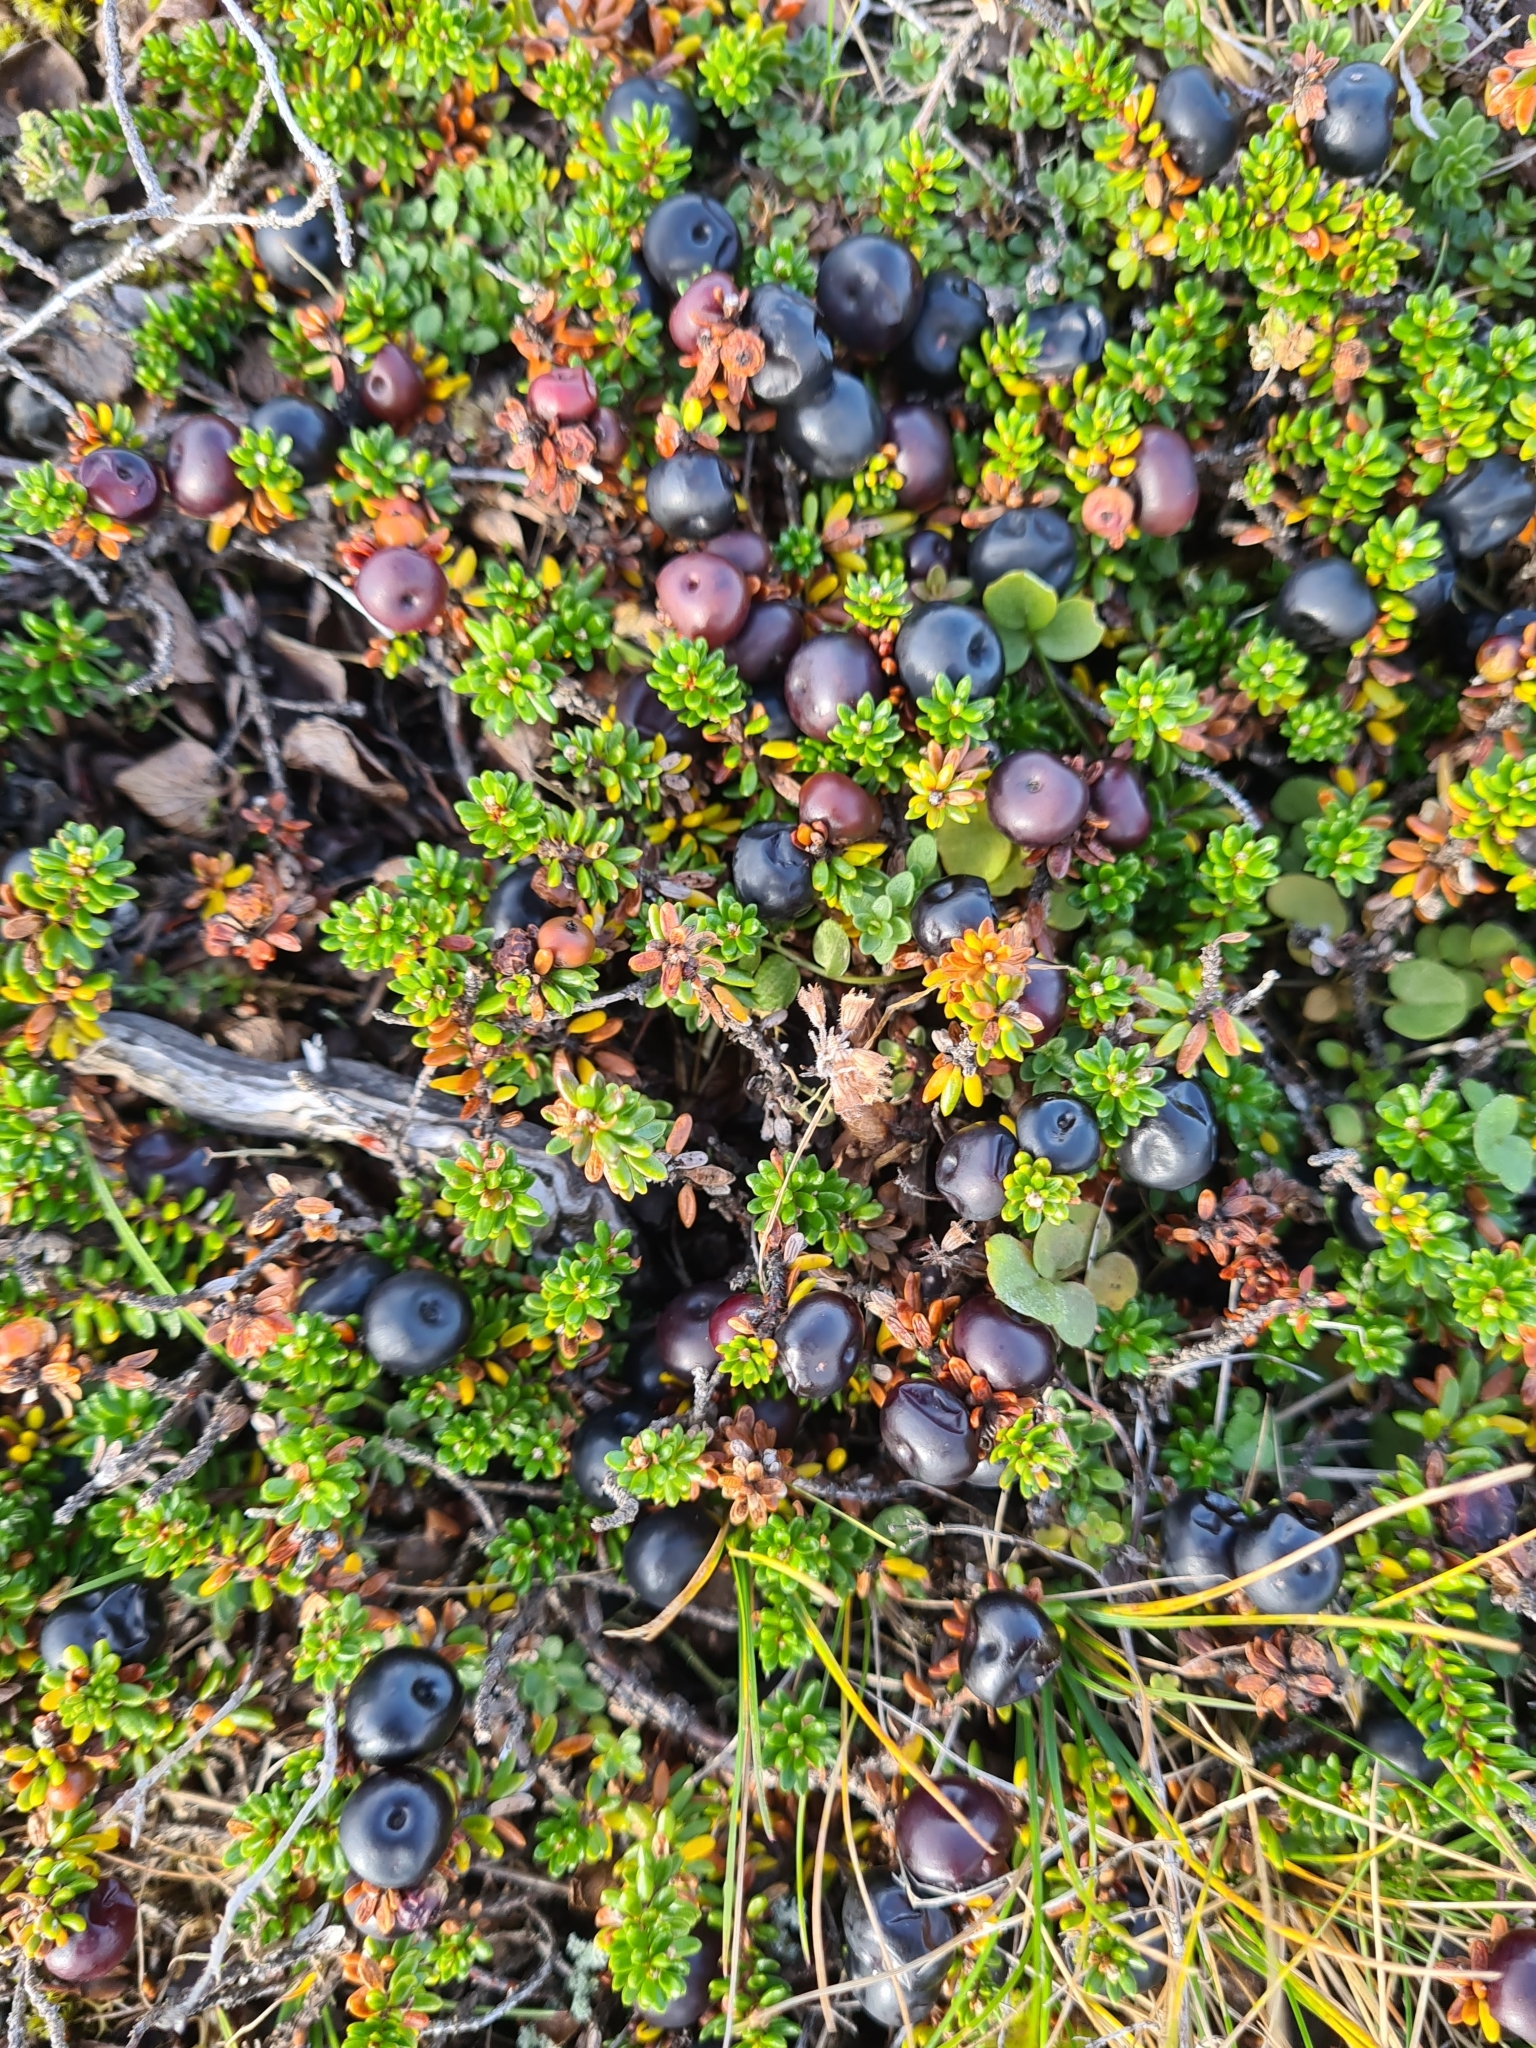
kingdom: Plantae
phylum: Tracheophyta
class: Magnoliopsida
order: Ericales
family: Ericaceae
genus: Empetrum
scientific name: Empetrum nigrum
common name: Black crowberry
